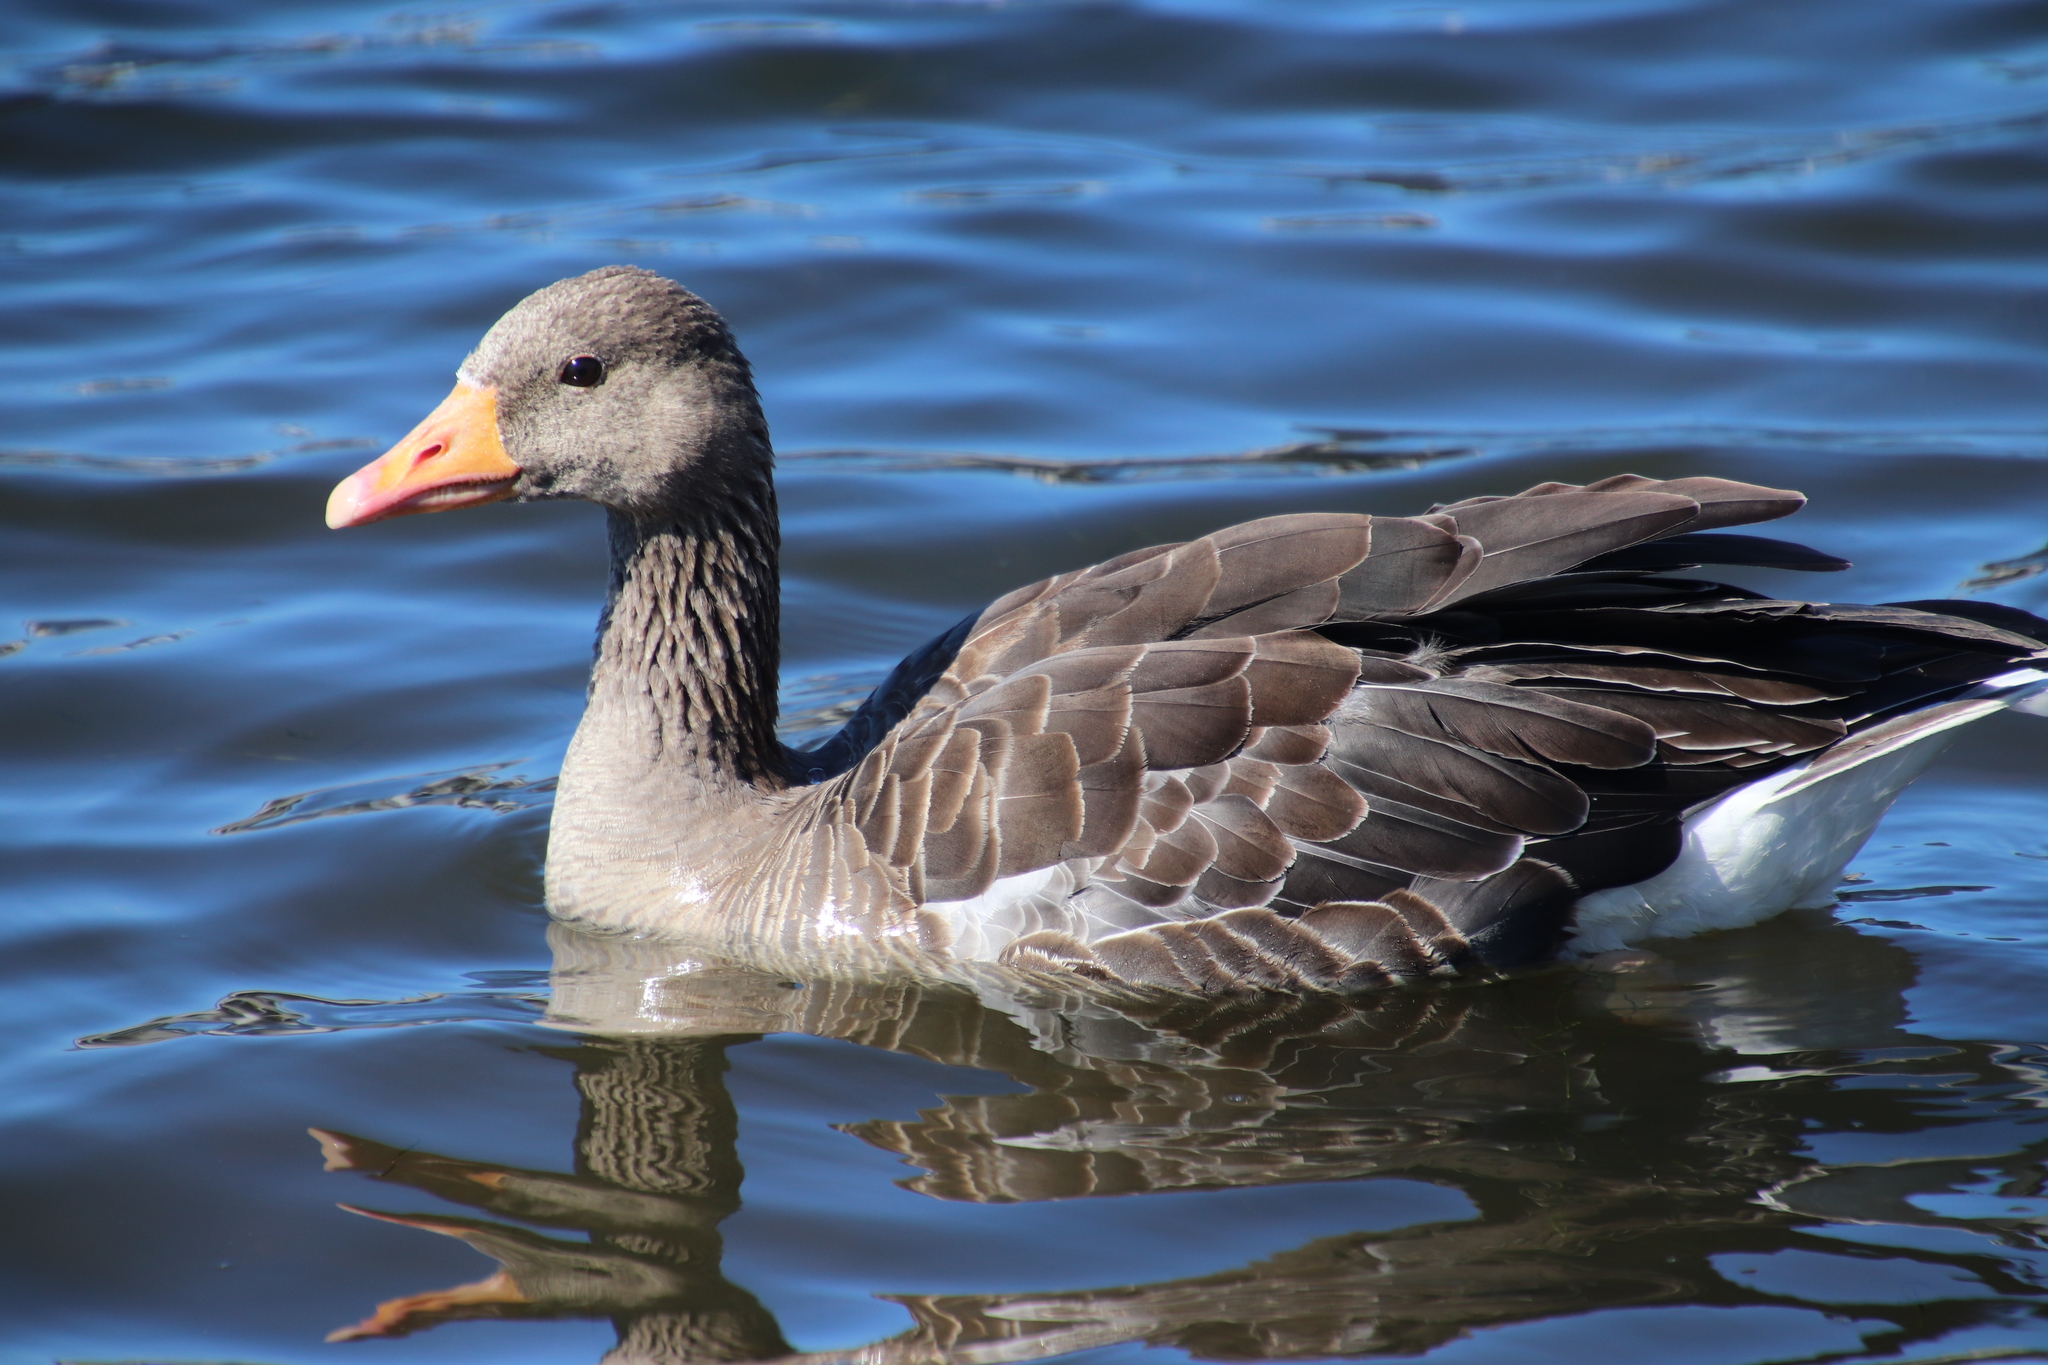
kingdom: Animalia
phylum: Chordata
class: Aves
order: Anseriformes
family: Anatidae
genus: Anser
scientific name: Anser anser
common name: Greylag goose
